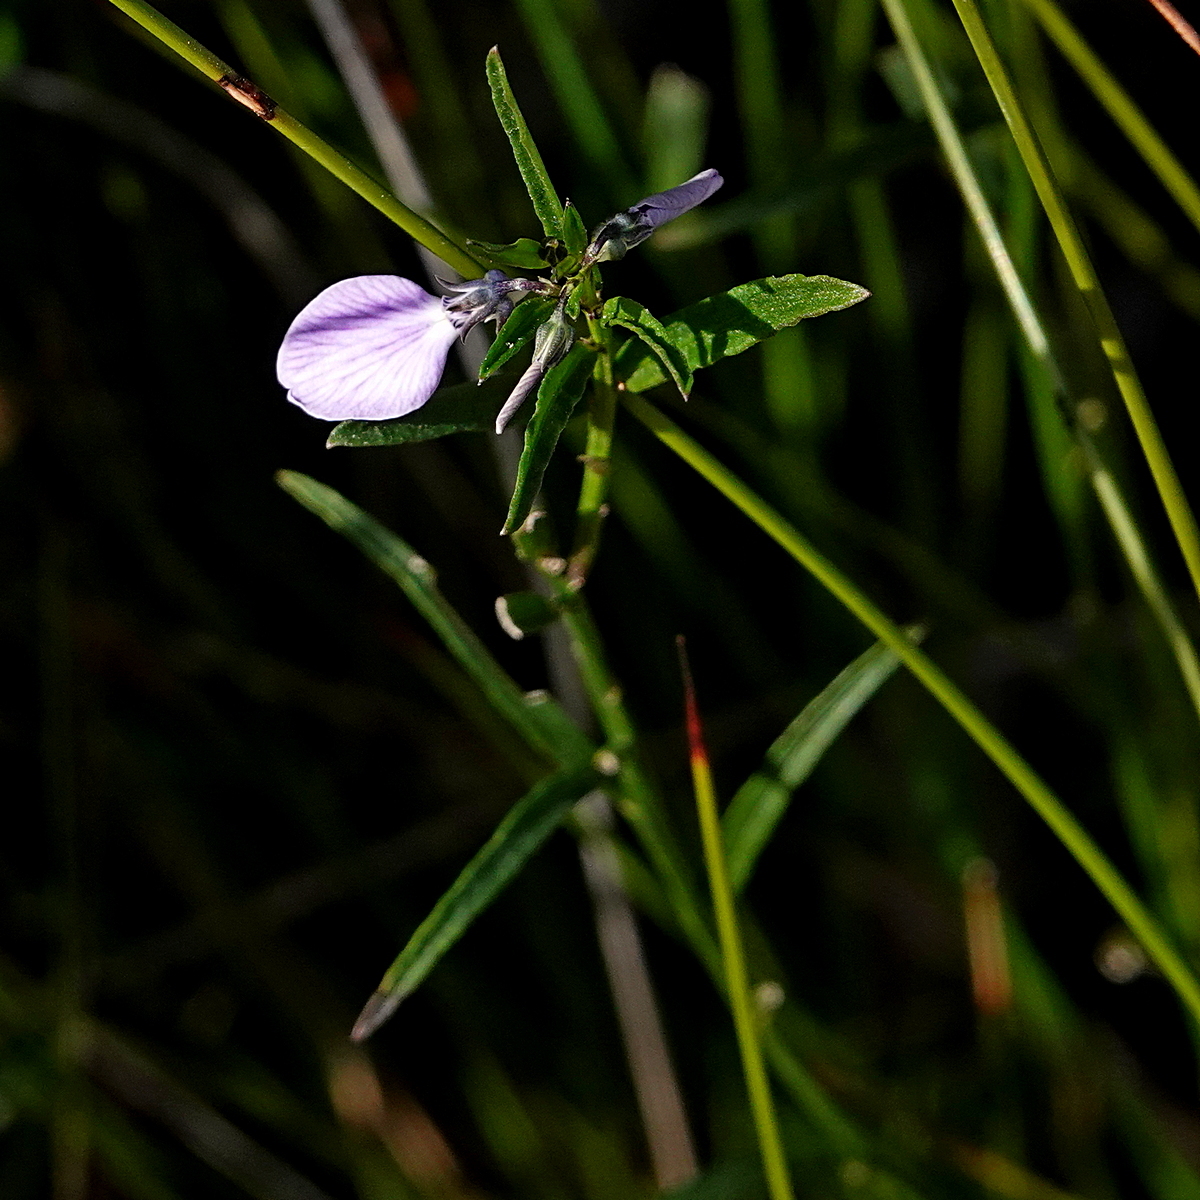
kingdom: Plantae
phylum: Tracheophyta
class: Magnoliopsida
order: Malpighiales
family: Violaceae
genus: Pigea
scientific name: Pigea vernonii
